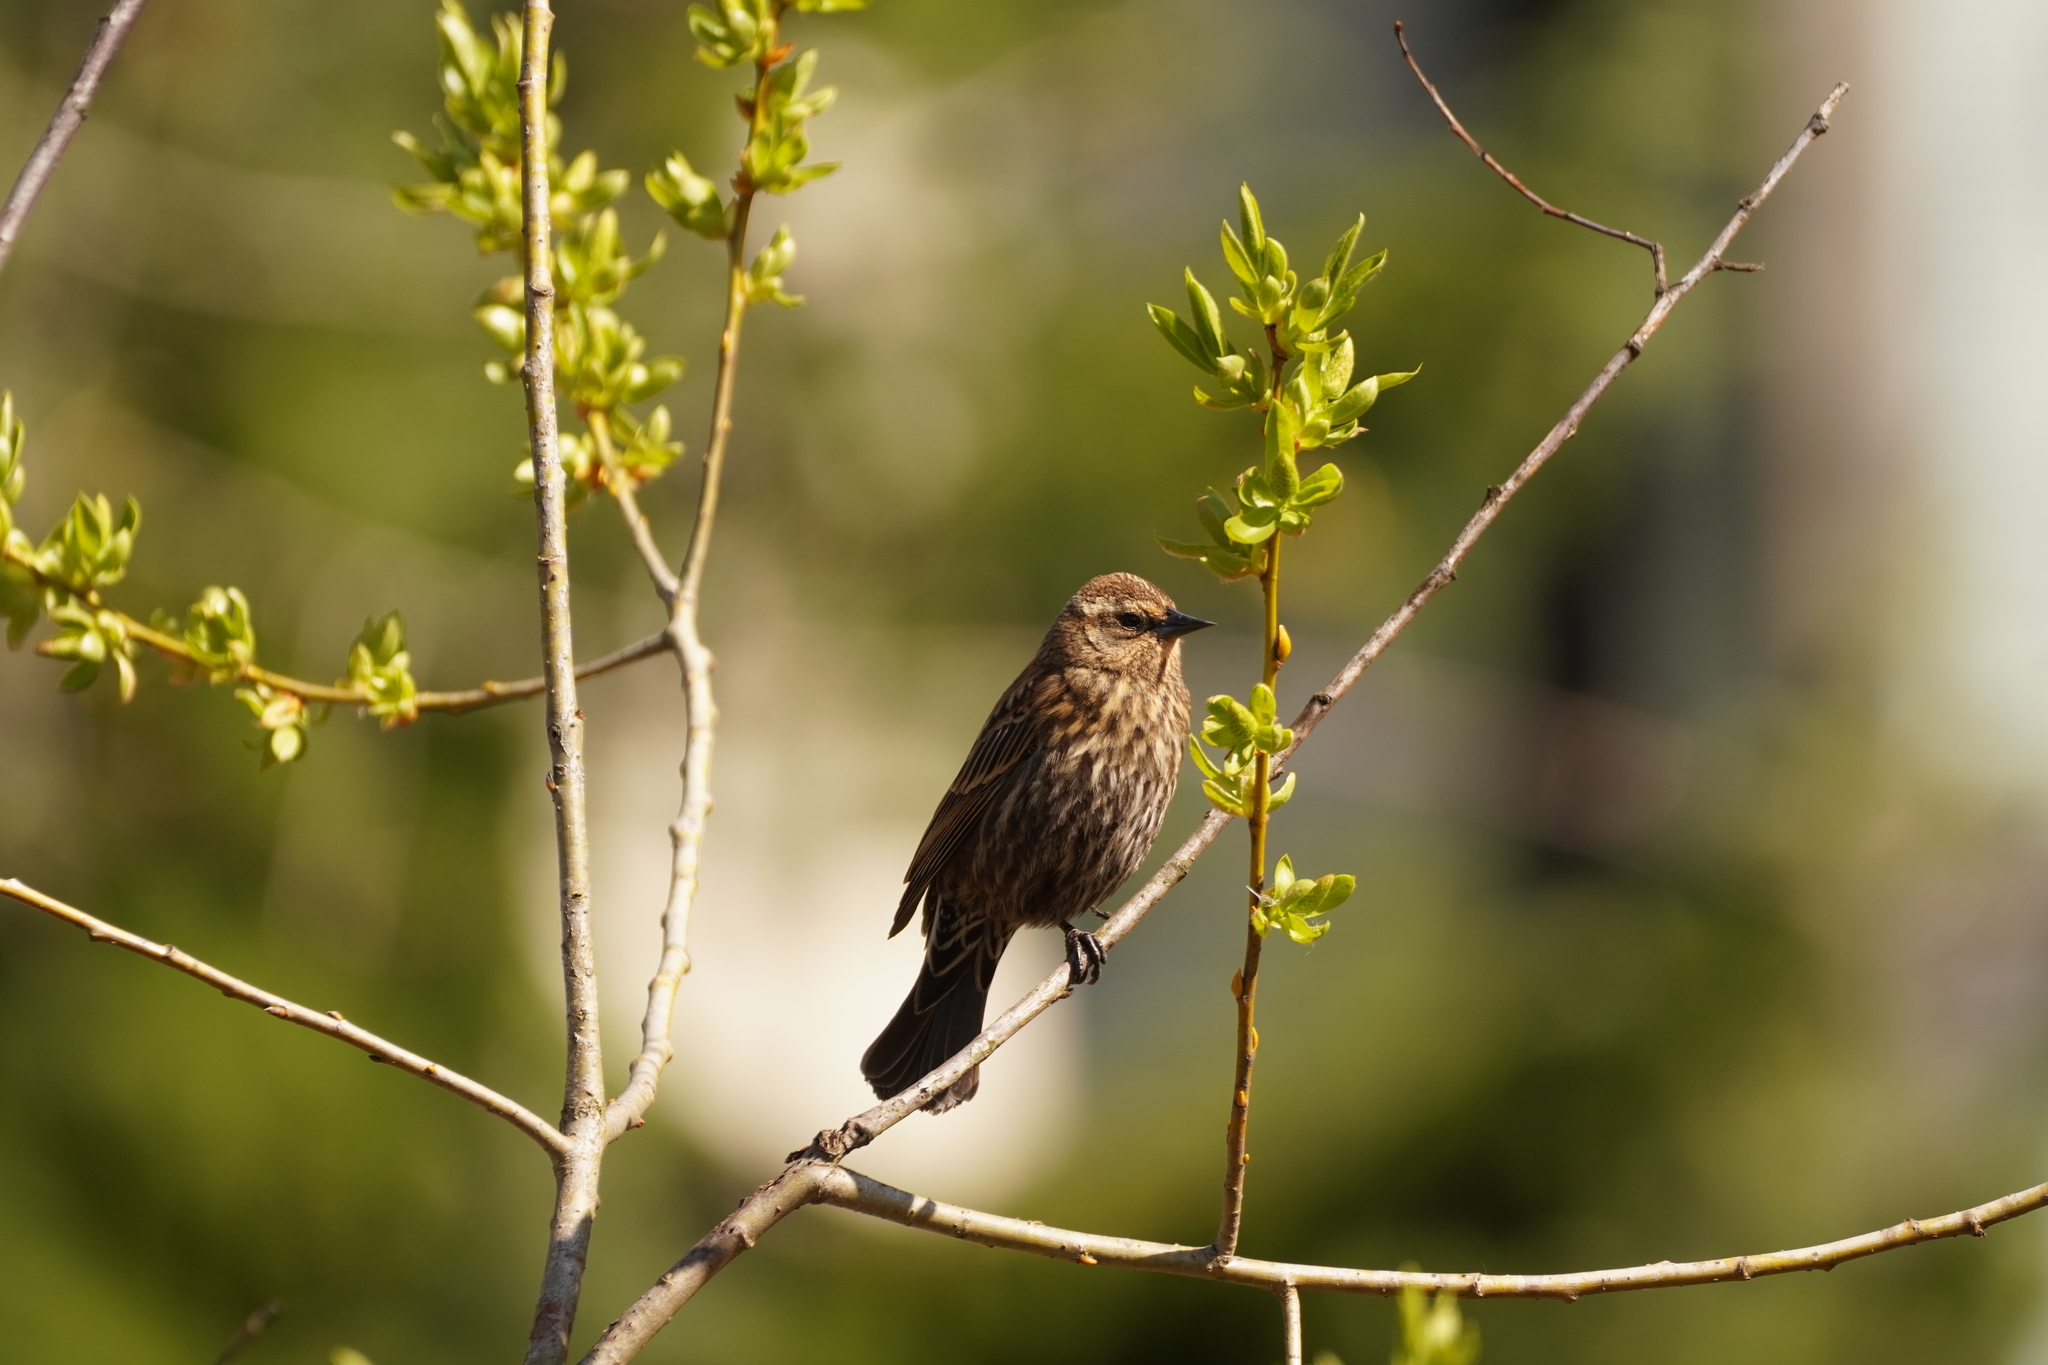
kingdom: Animalia
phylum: Chordata
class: Aves
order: Passeriformes
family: Icteridae
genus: Agelaius
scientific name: Agelaius phoeniceus
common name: Red-winged blackbird
